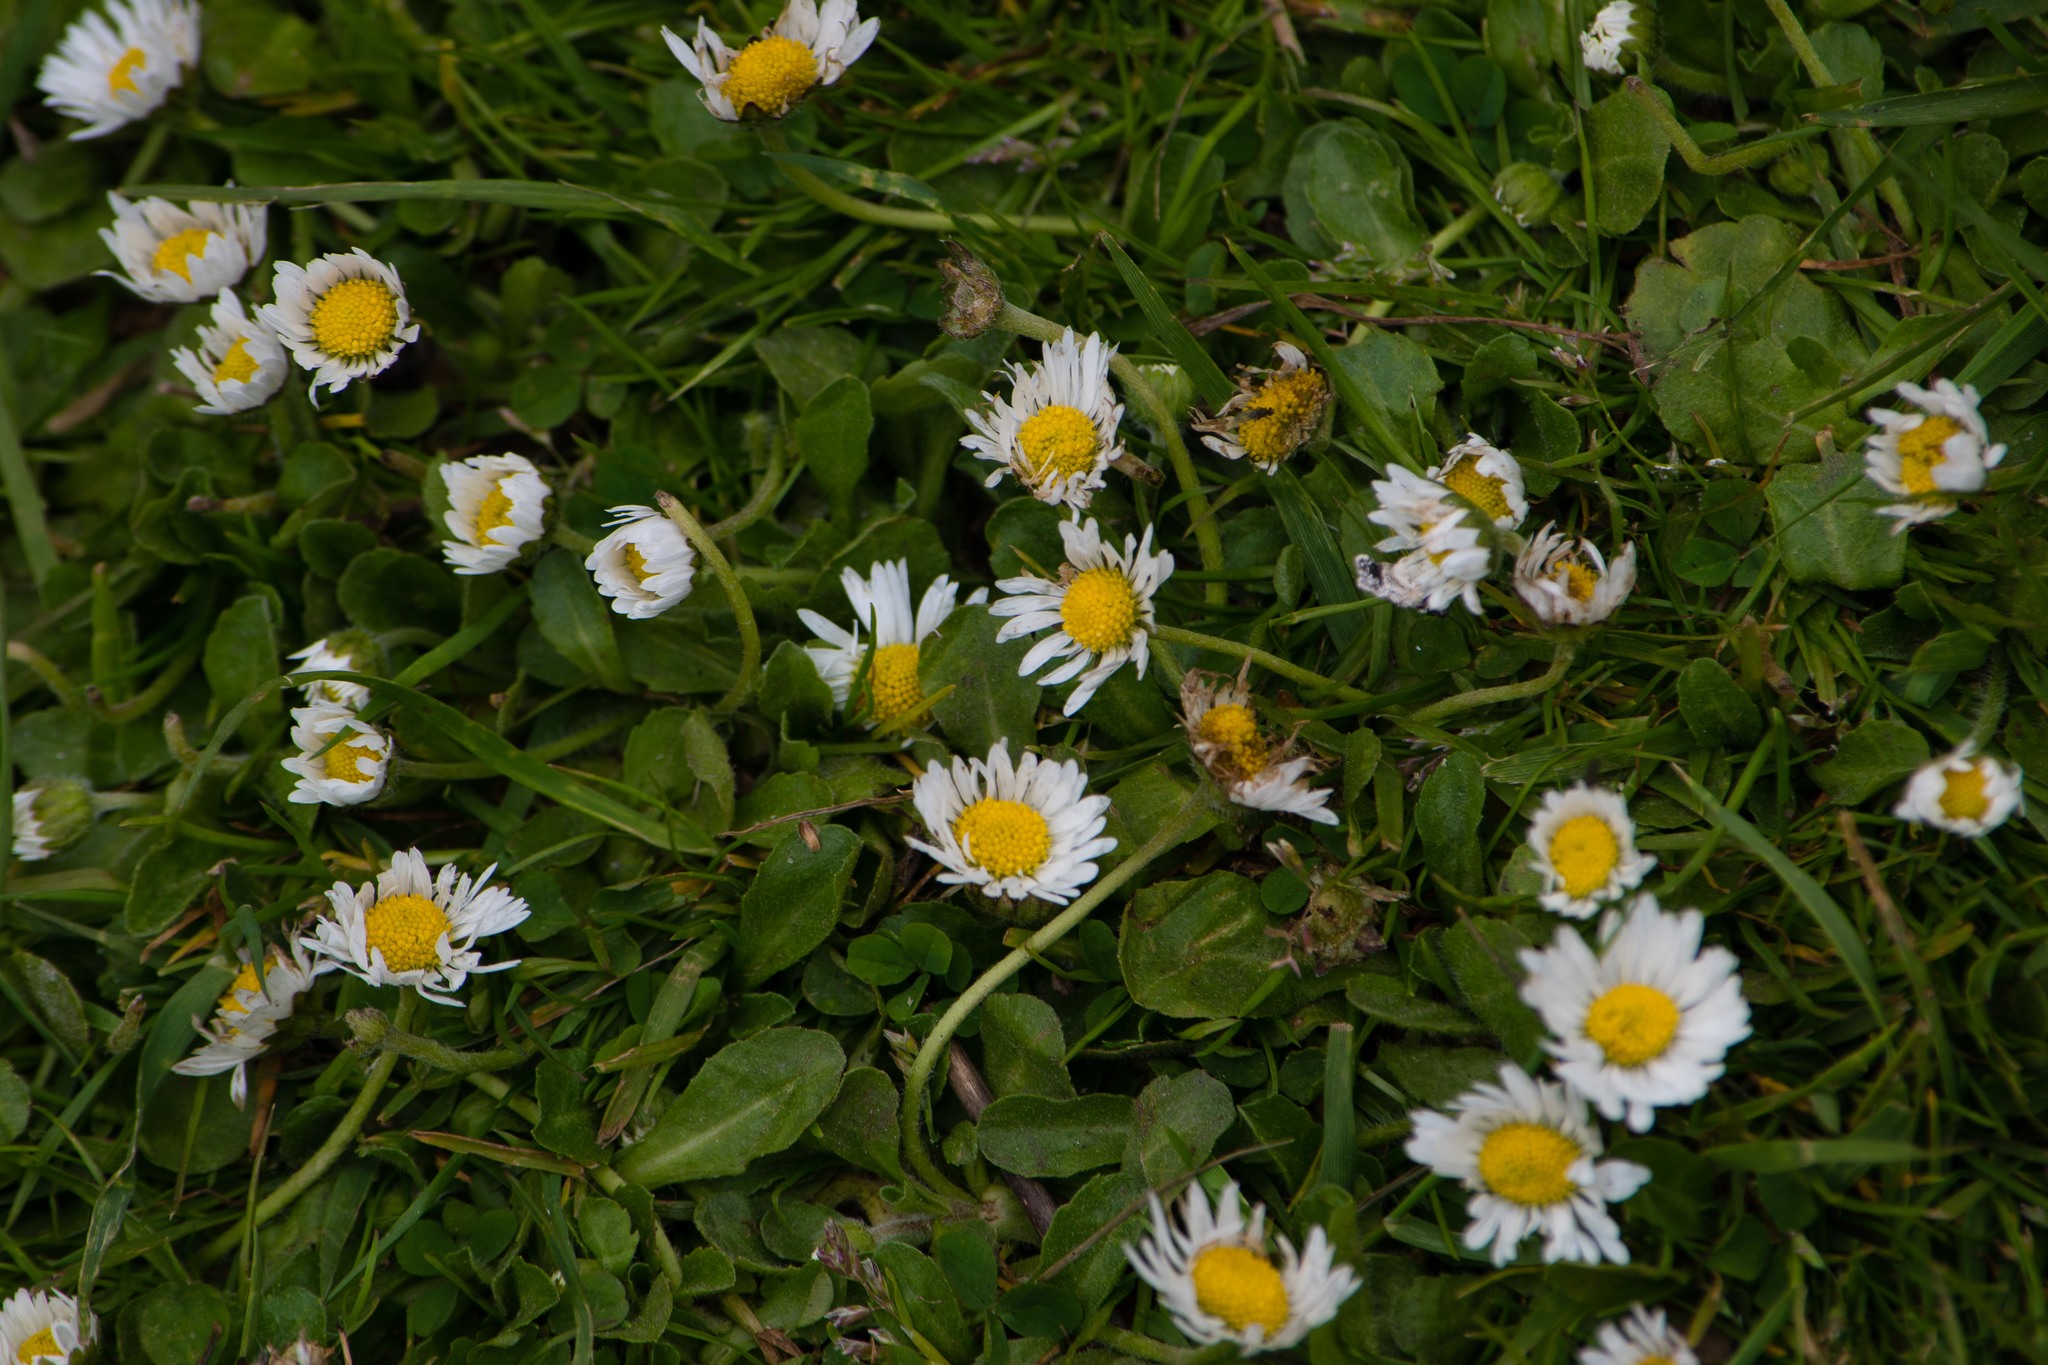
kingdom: Plantae
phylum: Tracheophyta
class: Magnoliopsida
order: Asterales
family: Asteraceae
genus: Bellis
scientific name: Bellis perennis
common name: Lawndaisy
